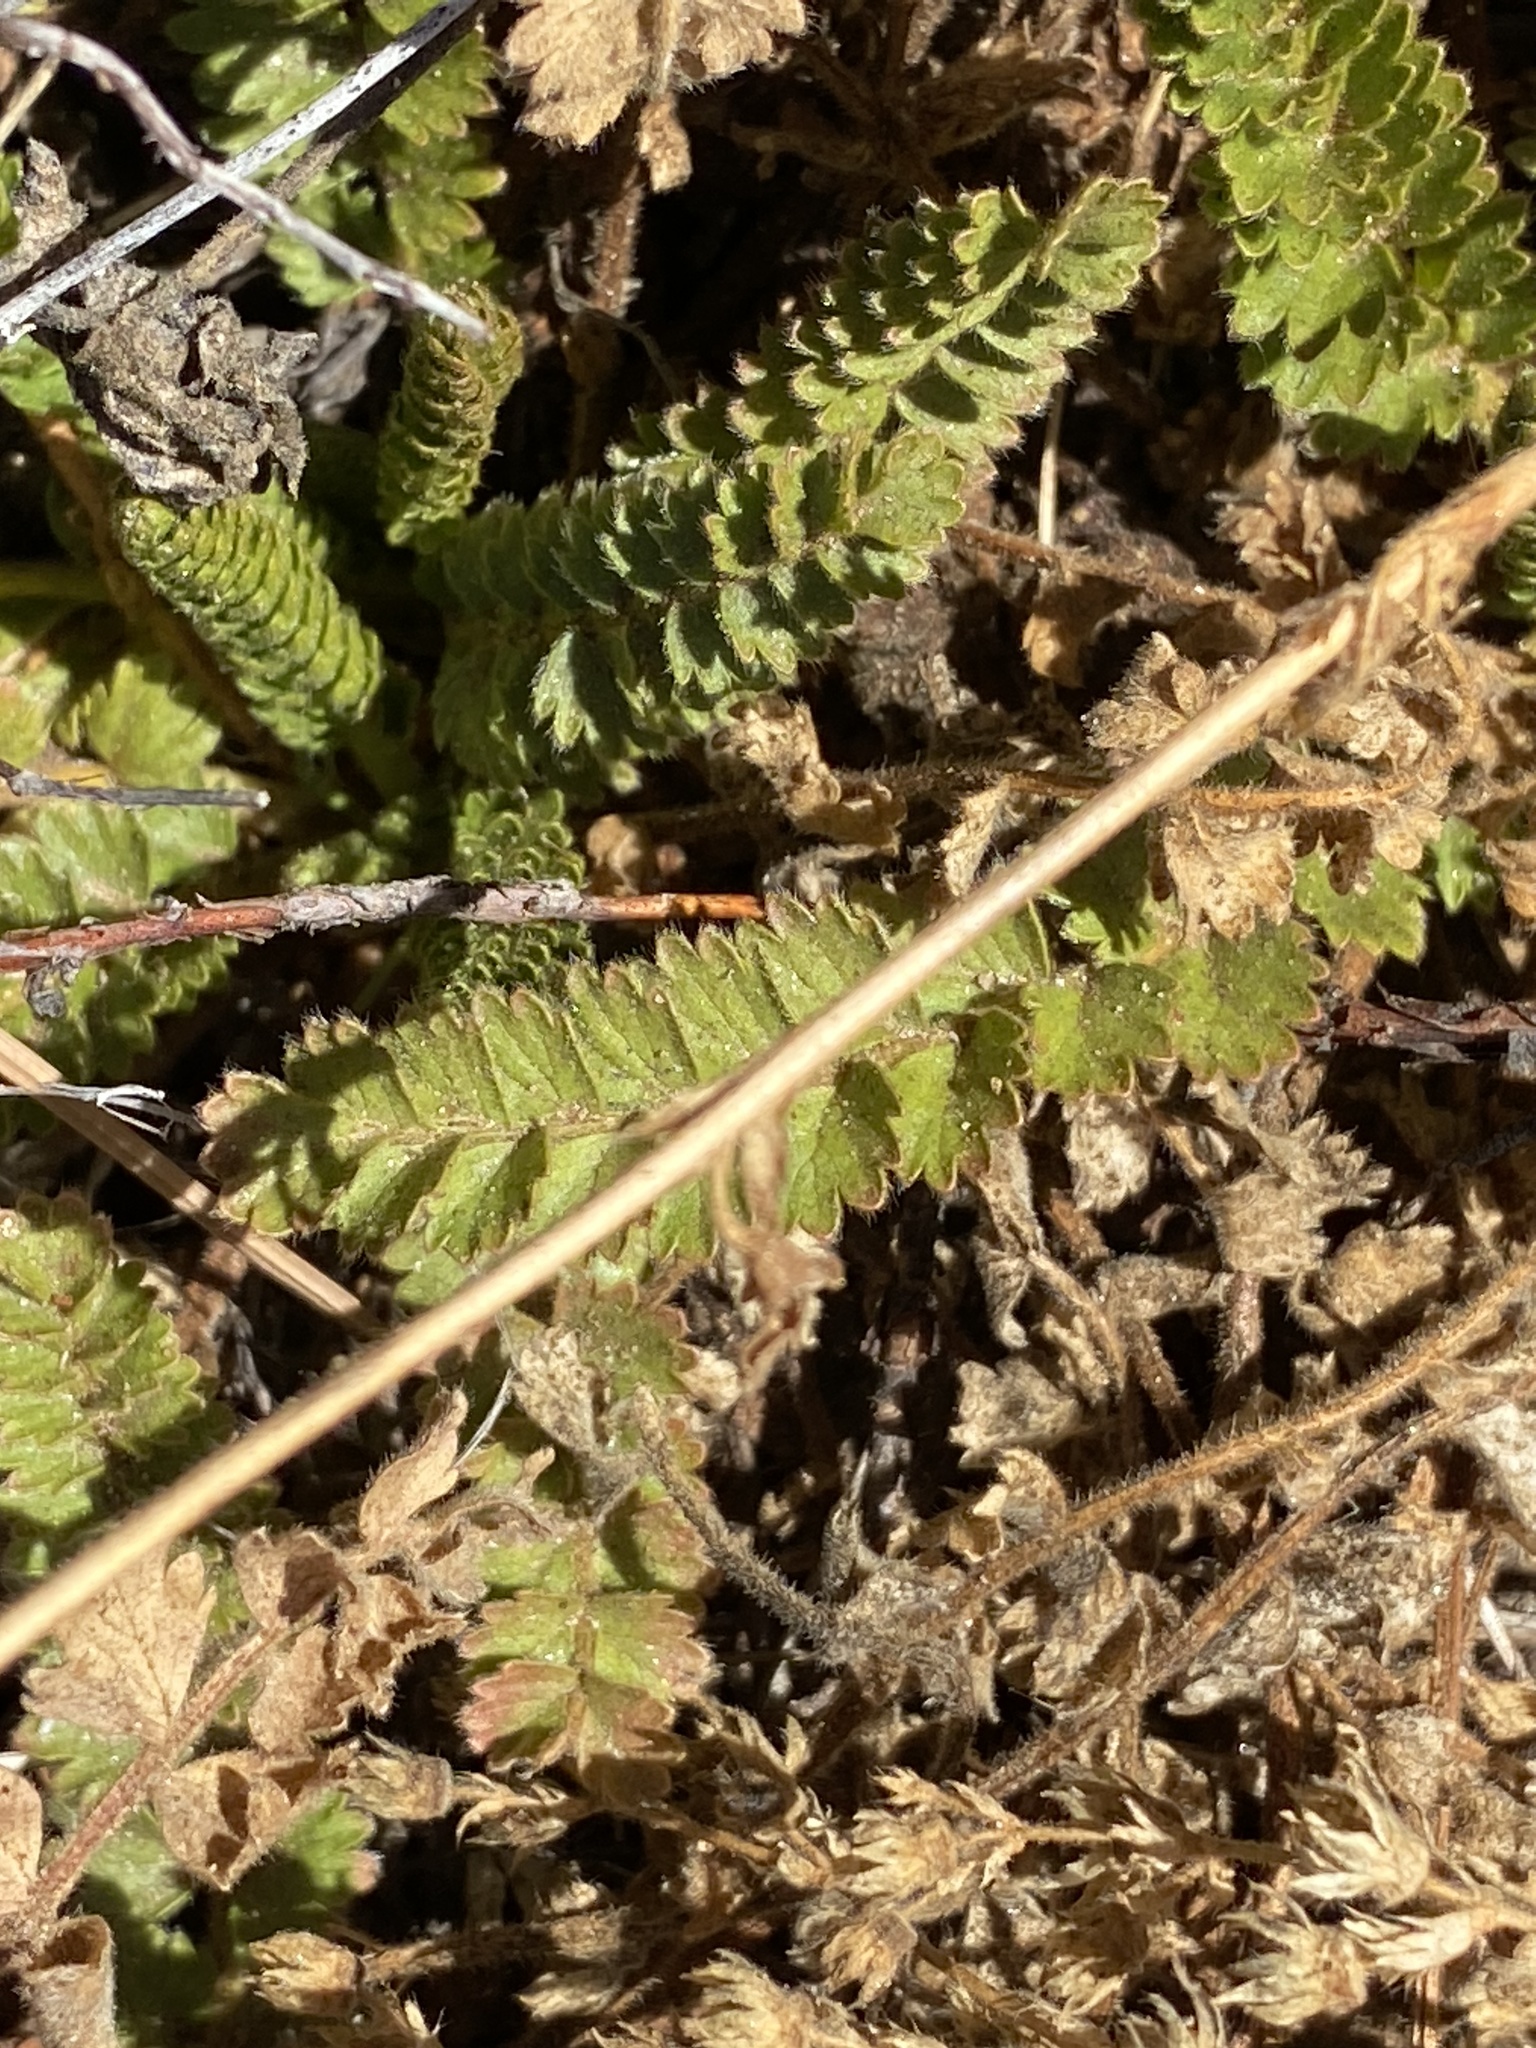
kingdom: Plantae
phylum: Tracheophyta
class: Magnoliopsida
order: Rosales
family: Rosaceae
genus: Potentilla
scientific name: Potentilla clevelandii
